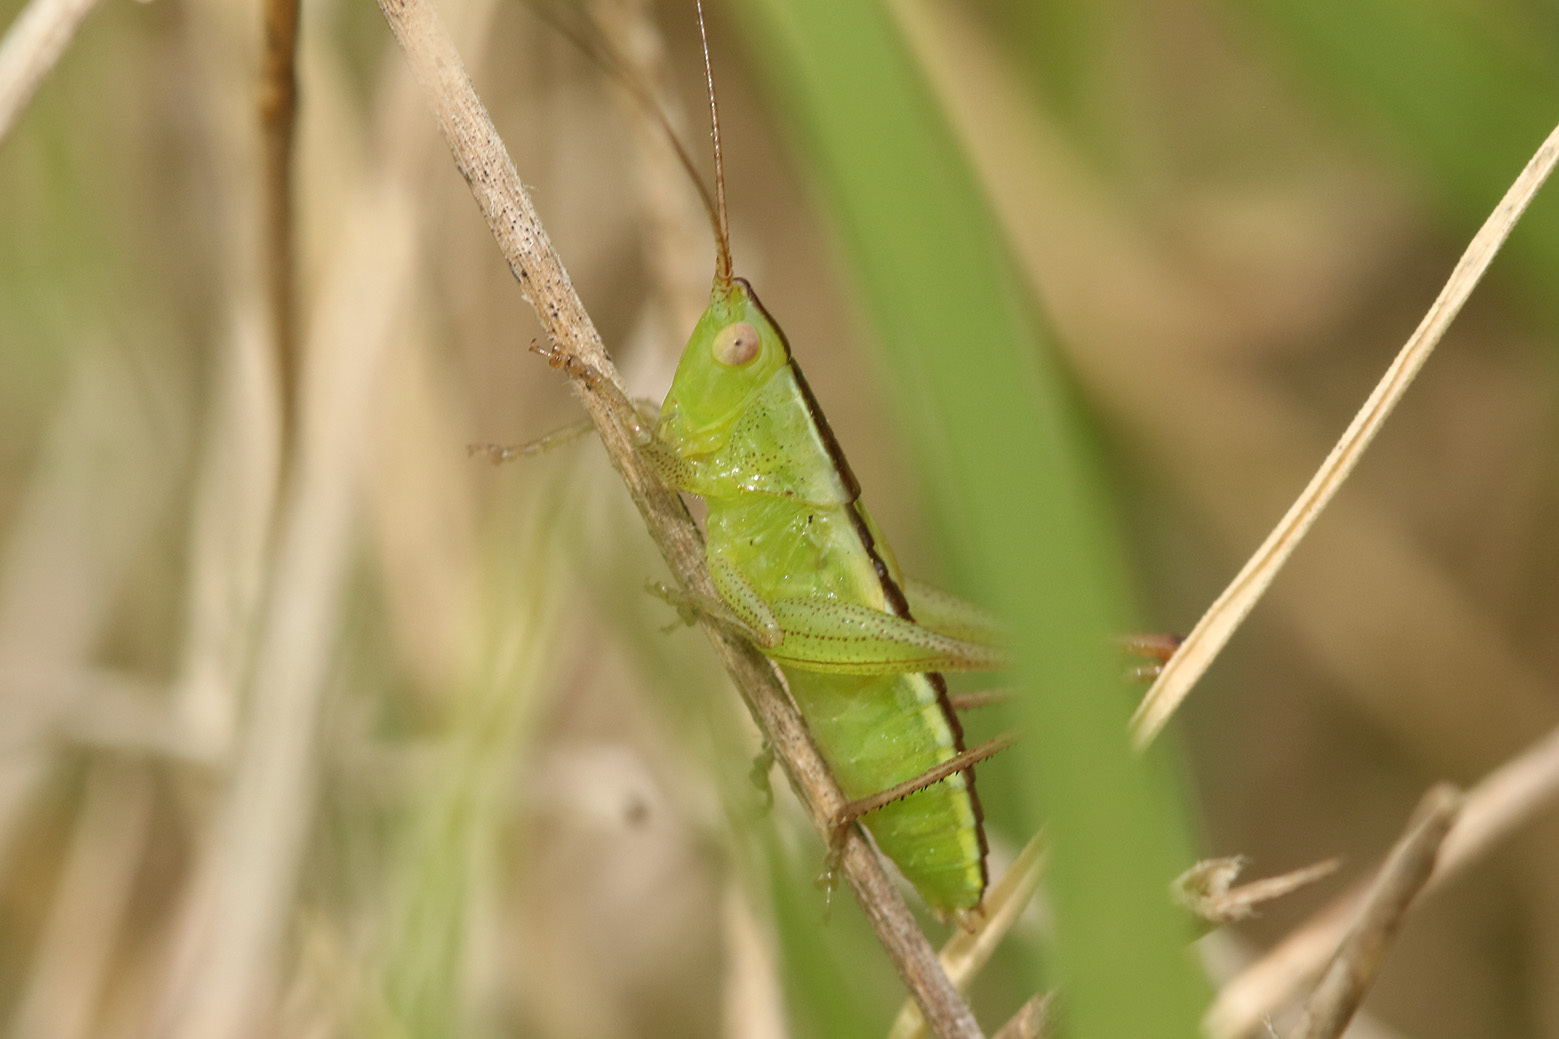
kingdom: Animalia
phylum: Arthropoda
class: Insecta
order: Orthoptera
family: Tettigoniidae
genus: Conocephalus
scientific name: Conocephalus longipes
